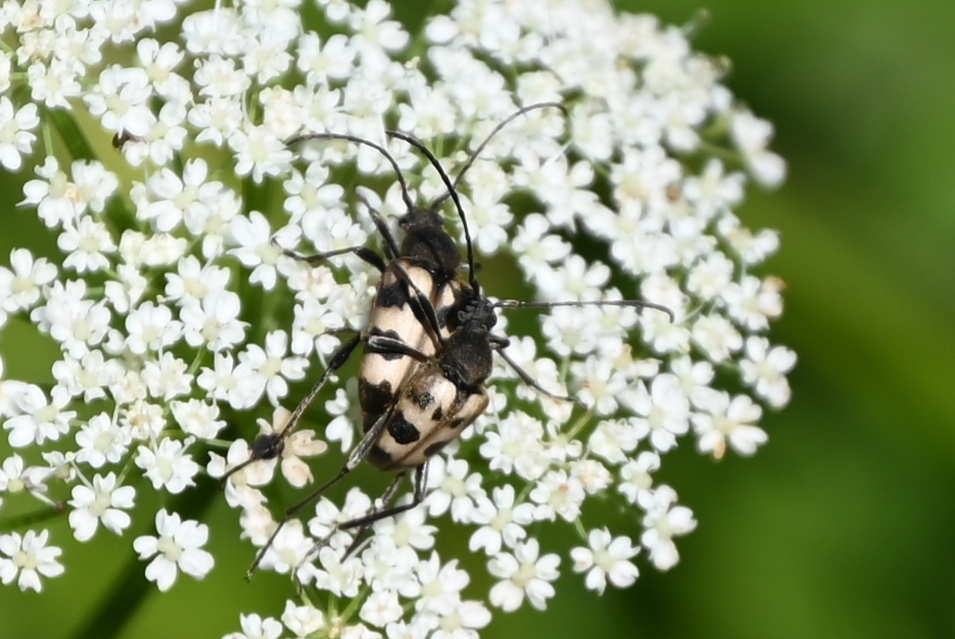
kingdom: Animalia
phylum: Arthropoda
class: Insecta
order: Coleoptera
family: Cerambycidae
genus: Pachytodes
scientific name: Pachytodes cerambyciformis
